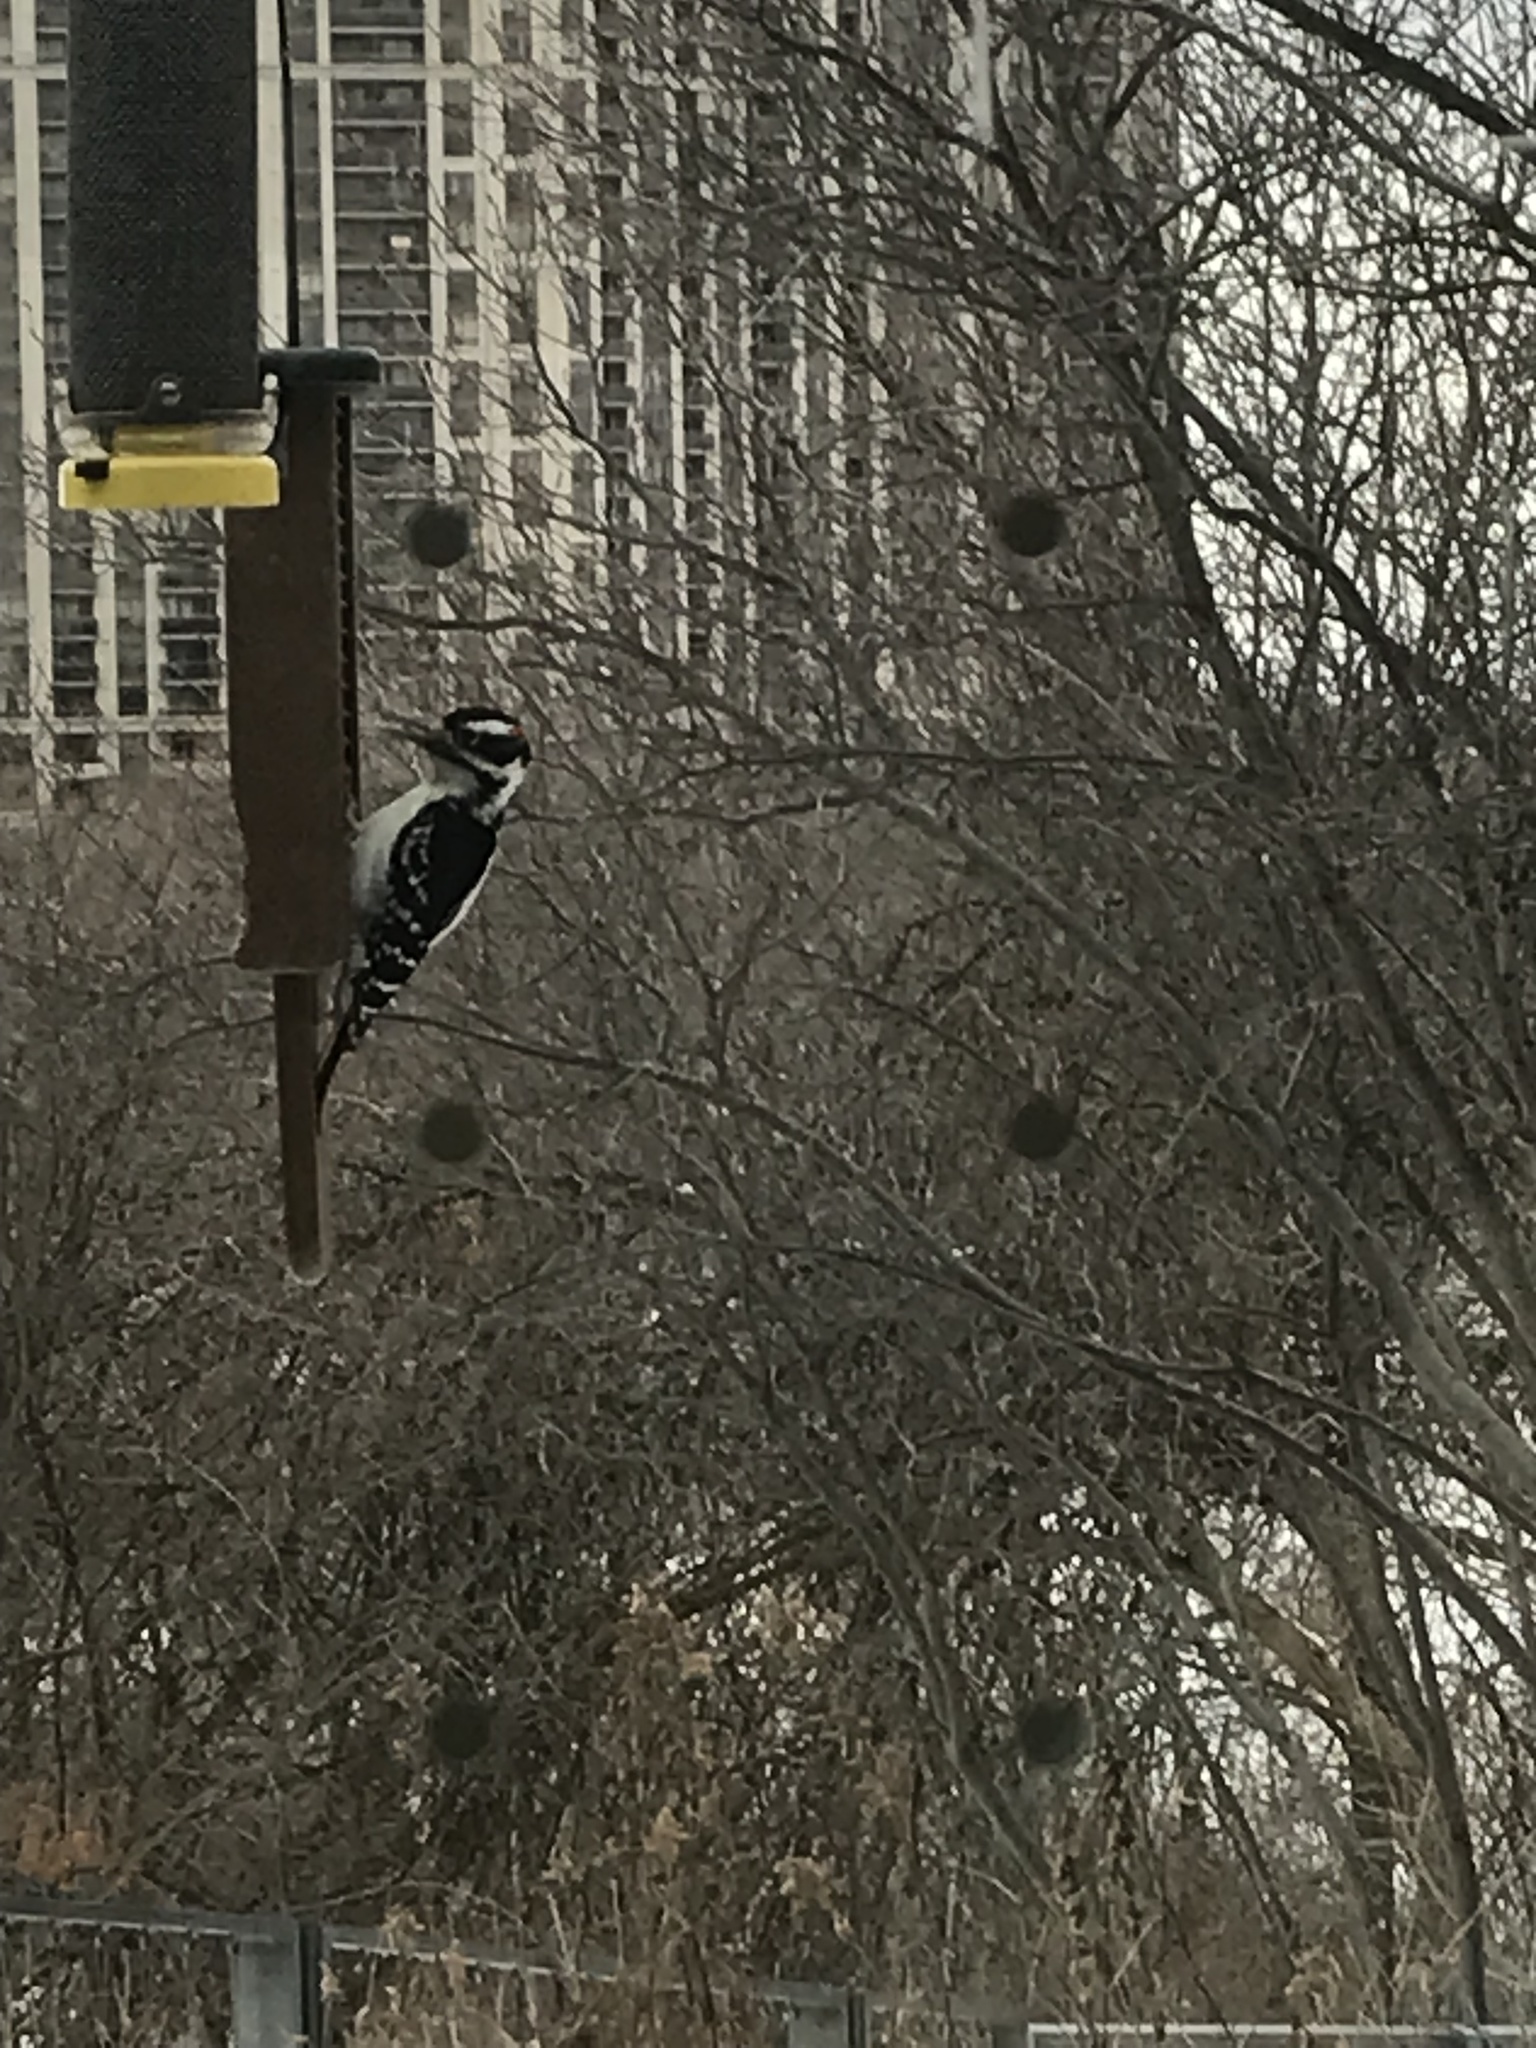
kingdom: Animalia
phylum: Chordata
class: Aves
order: Piciformes
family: Picidae
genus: Leuconotopicus
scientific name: Leuconotopicus villosus
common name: Hairy woodpecker
